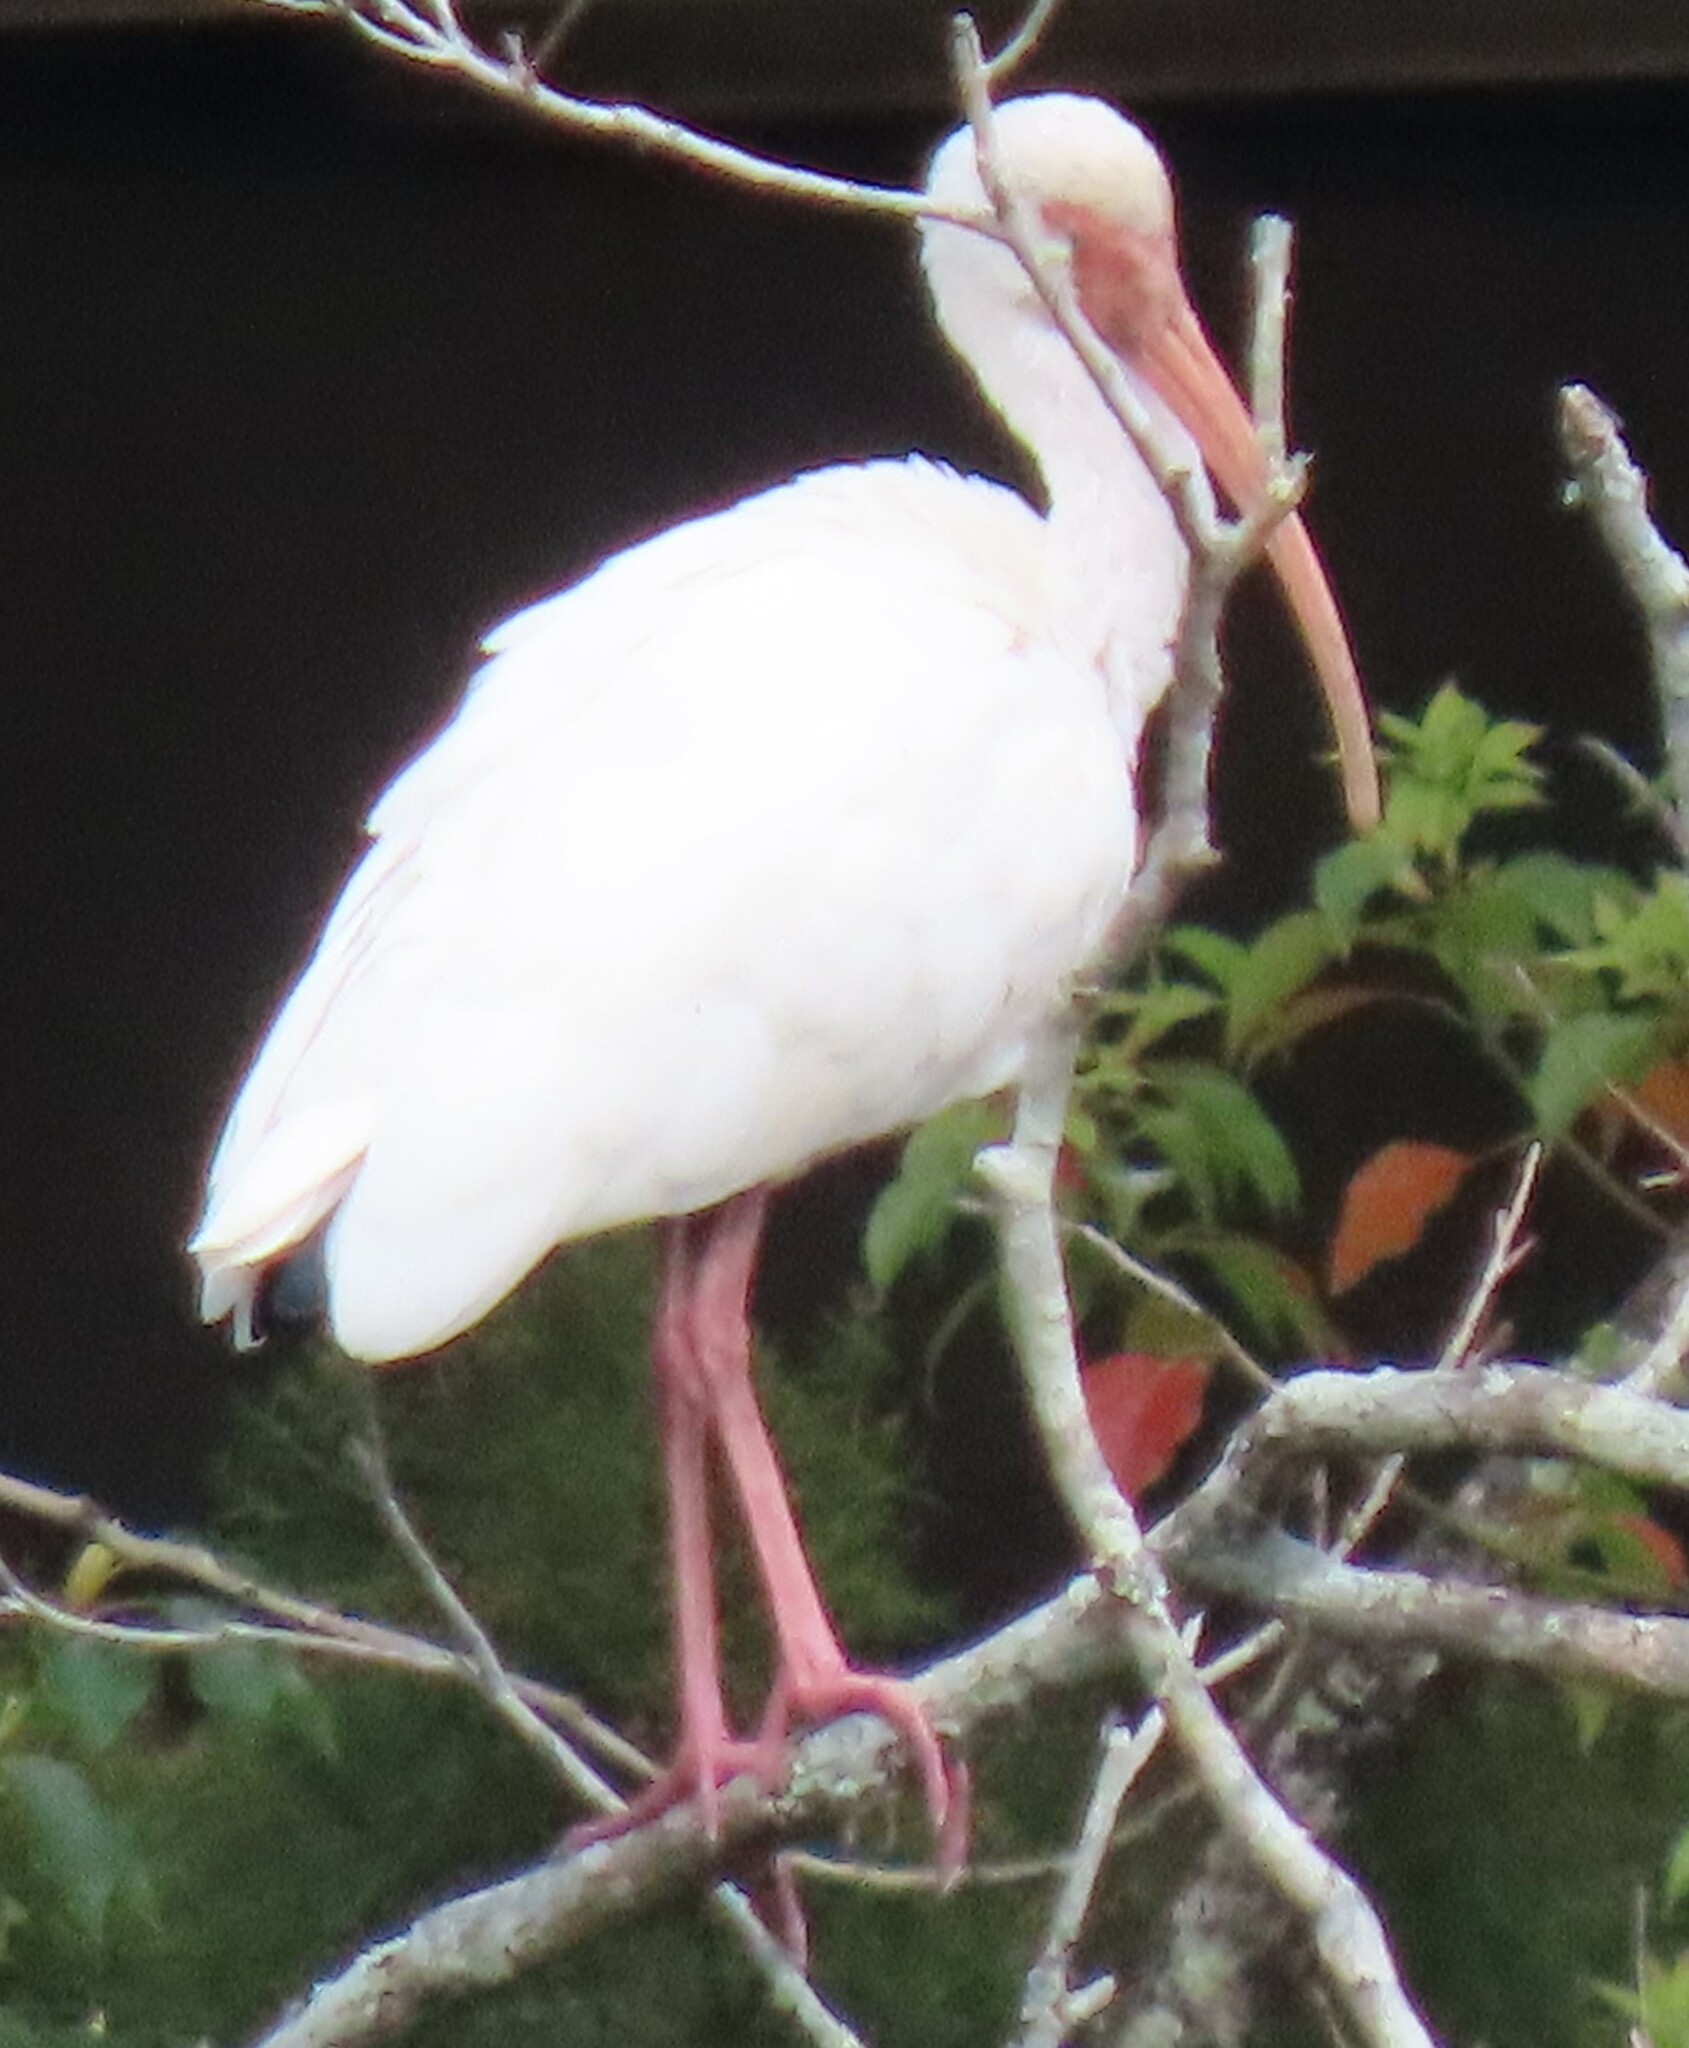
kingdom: Animalia
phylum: Chordata
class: Aves
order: Pelecaniformes
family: Threskiornithidae
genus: Eudocimus
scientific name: Eudocimus albus
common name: White ibis
